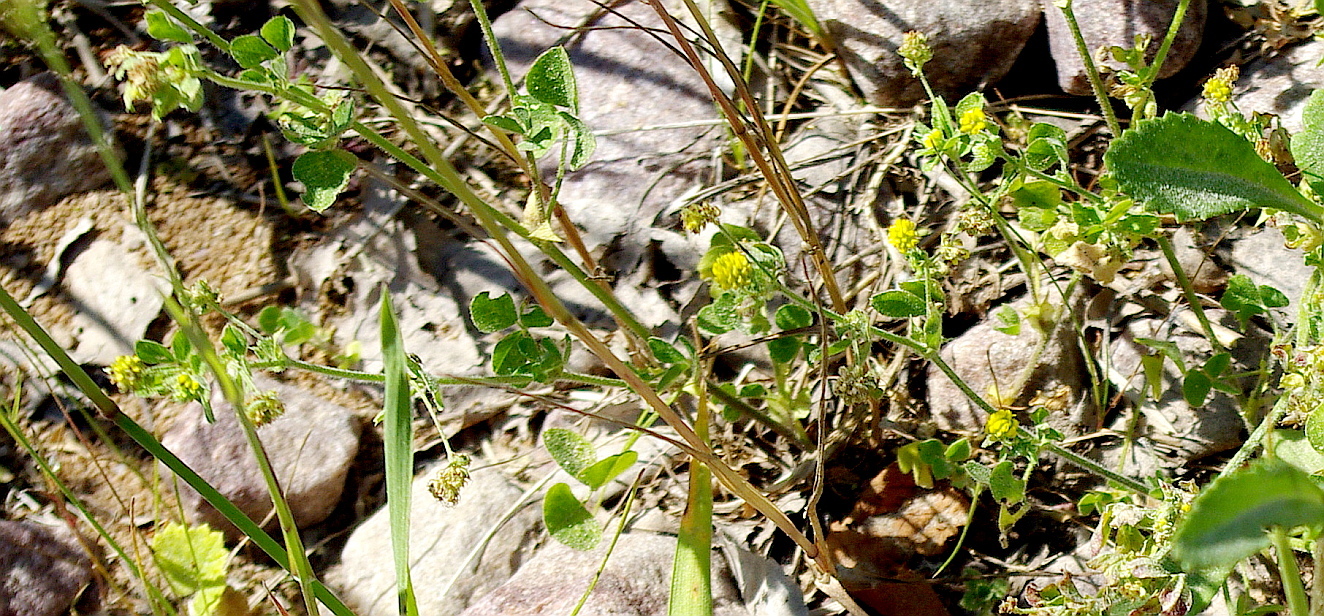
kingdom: Plantae
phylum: Tracheophyta
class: Magnoliopsida
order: Fabales
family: Fabaceae
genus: Medicago
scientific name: Medicago lupulina
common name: Black medick
